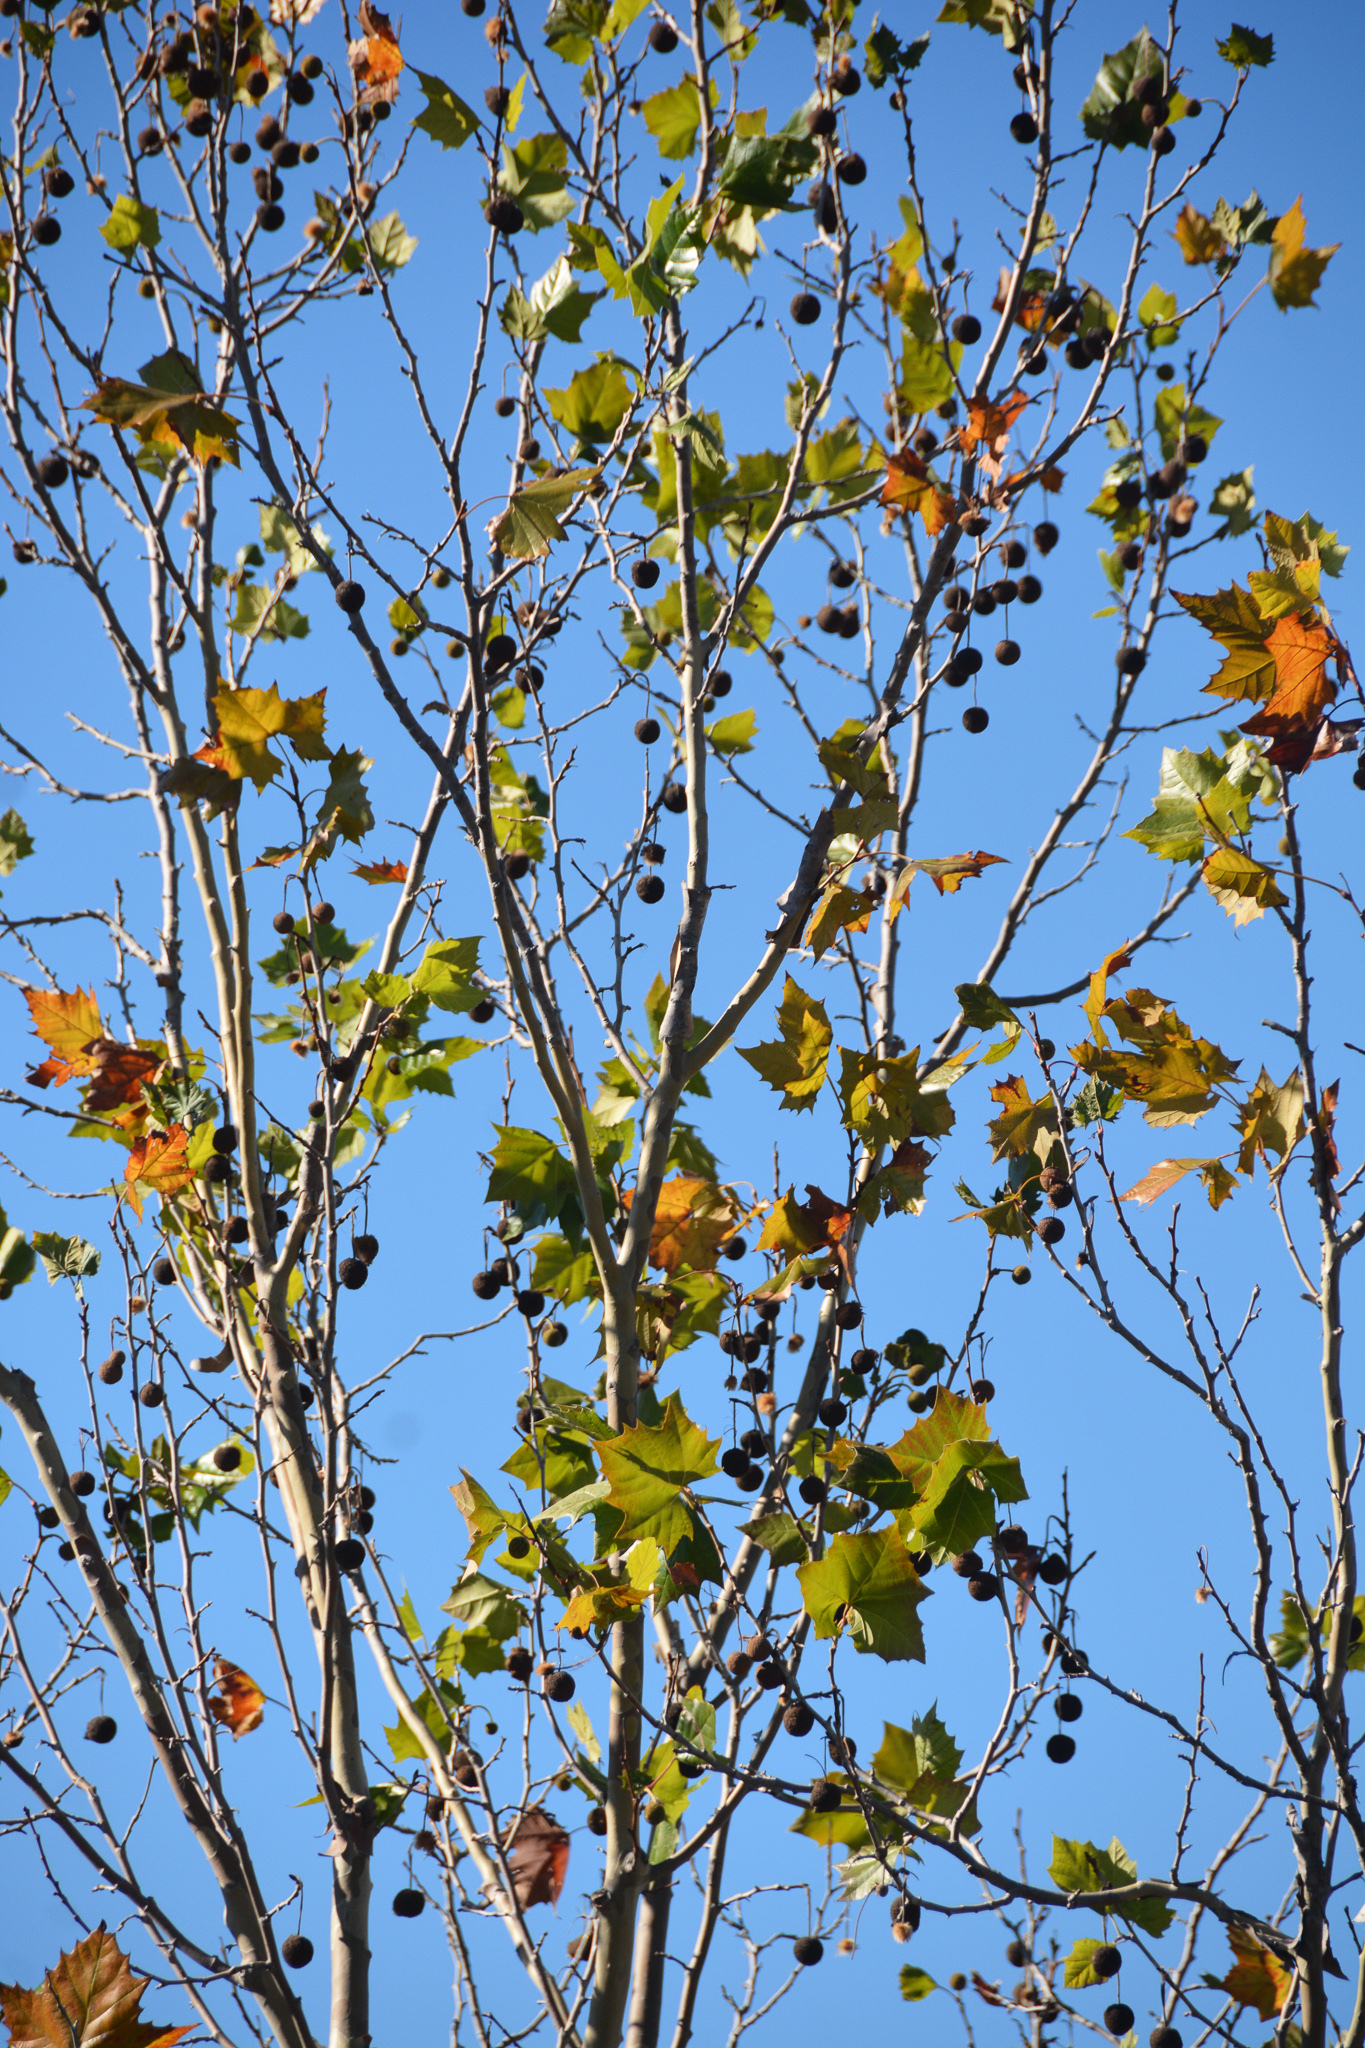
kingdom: Plantae
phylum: Tracheophyta
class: Magnoliopsida
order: Proteales
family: Platanaceae
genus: Platanus
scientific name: Platanus occidentalis
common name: American sycamore
